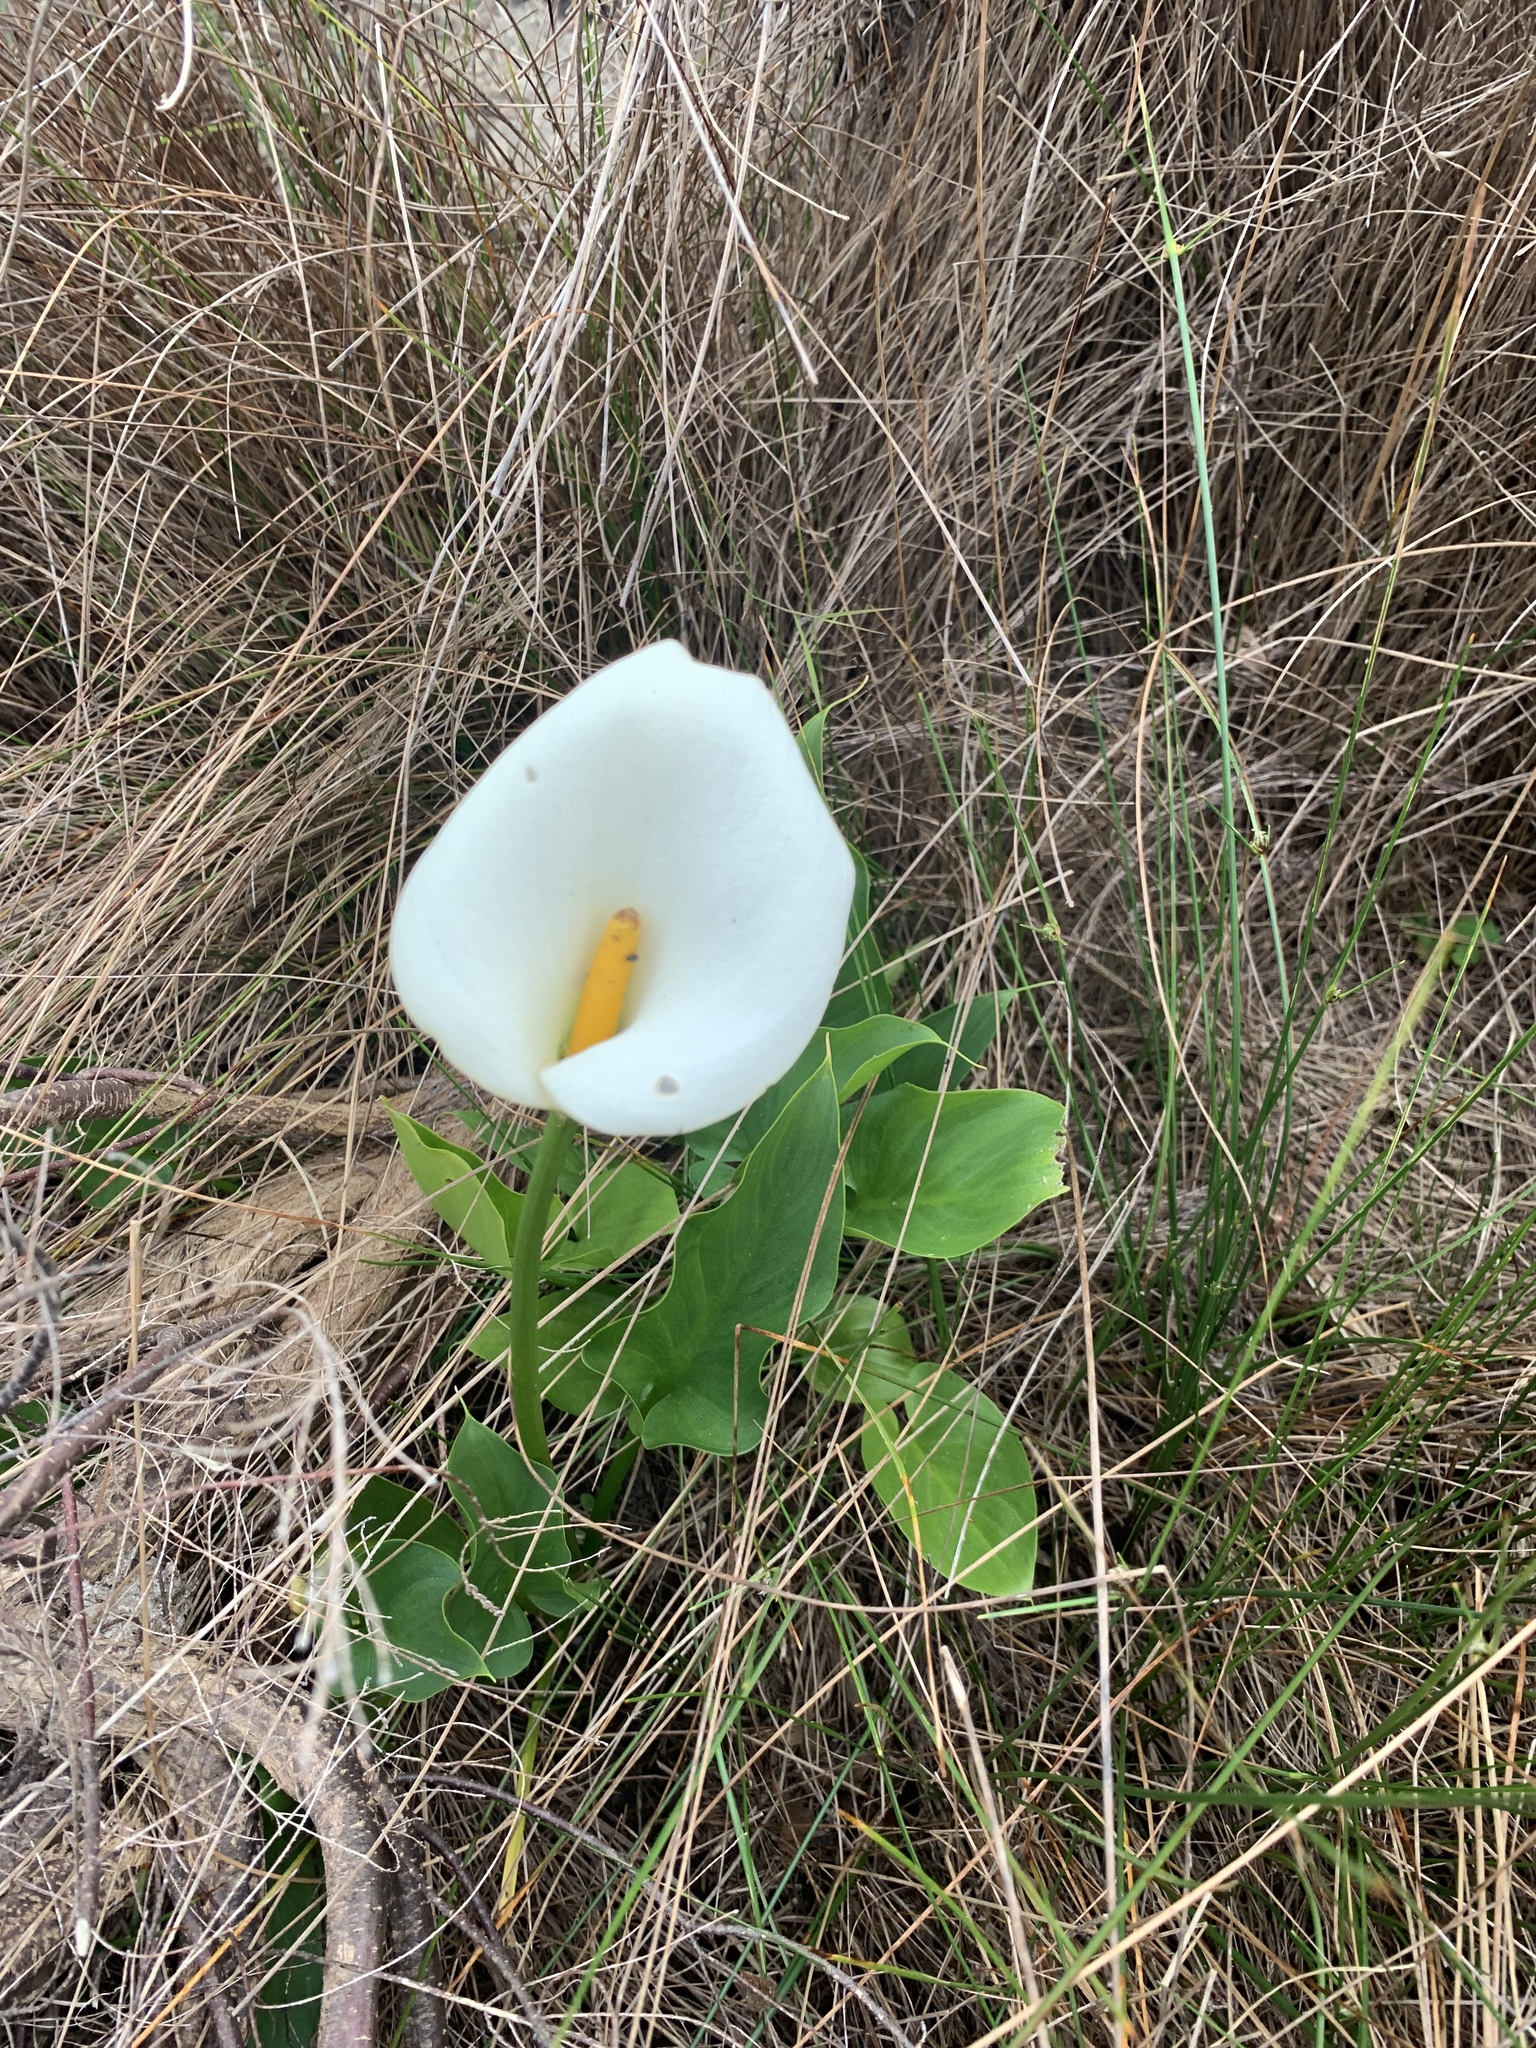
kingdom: Plantae
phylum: Tracheophyta
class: Liliopsida
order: Alismatales
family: Araceae
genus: Zantedeschia
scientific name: Zantedeschia aethiopica
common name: Altar-lily
